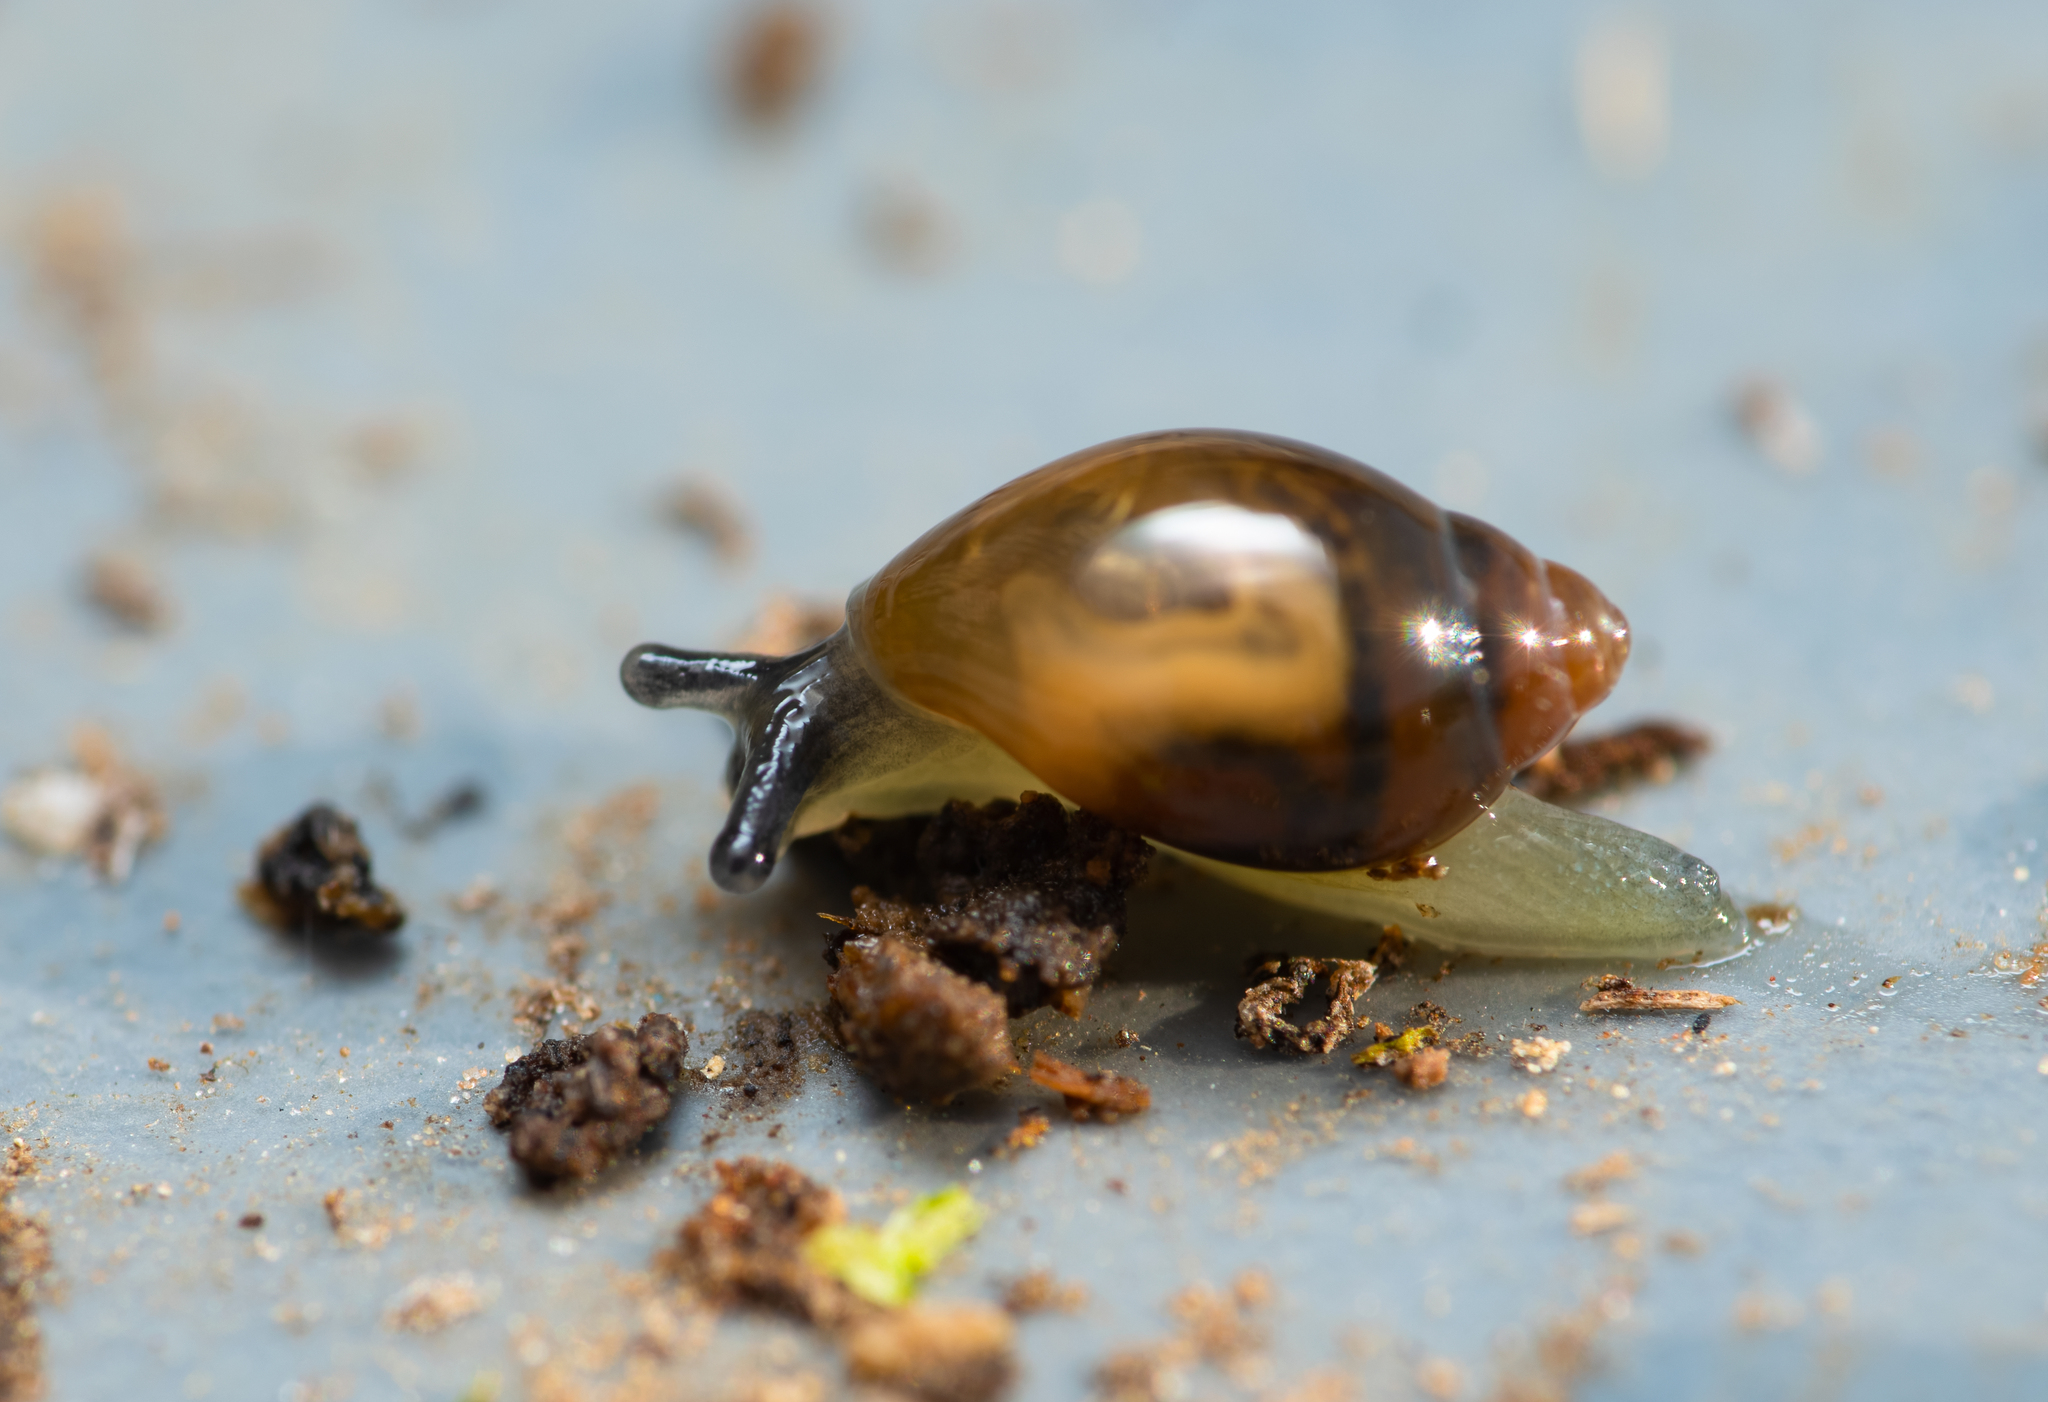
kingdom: Animalia
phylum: Mollusca
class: Gastropoda
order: Stylommatophora
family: Ferussaciidae
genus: Ferussacia
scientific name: Ferussacia folliculum
